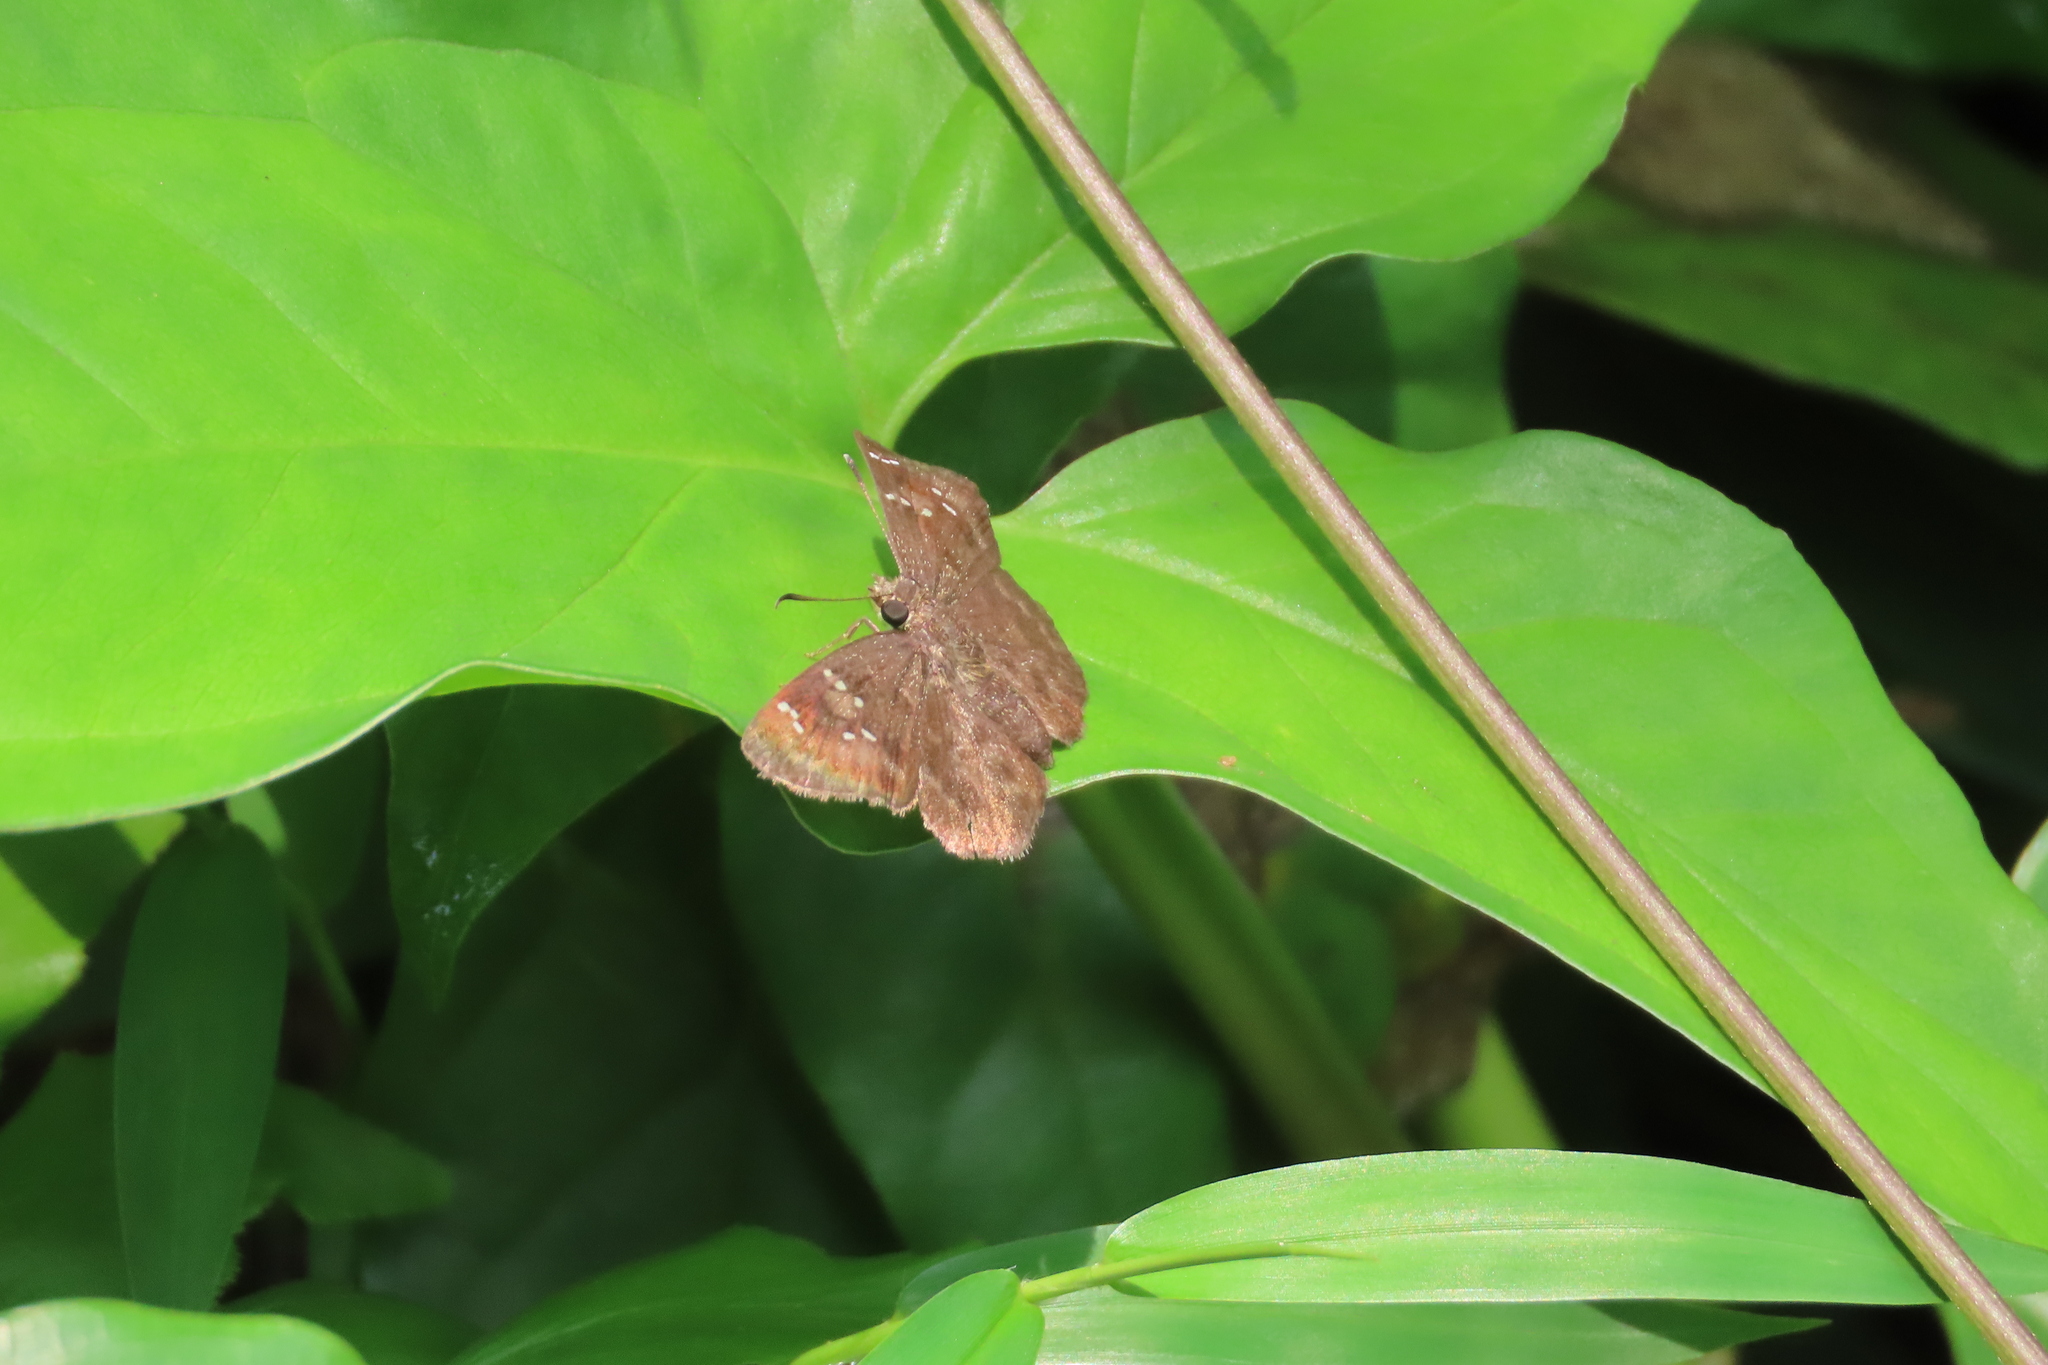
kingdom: Animalia
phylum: Arthropoda
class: Insecta
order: Lepidoptera
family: Hesperiidae
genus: Sarangesa
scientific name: Sarangesa dasahara
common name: Common small flat
